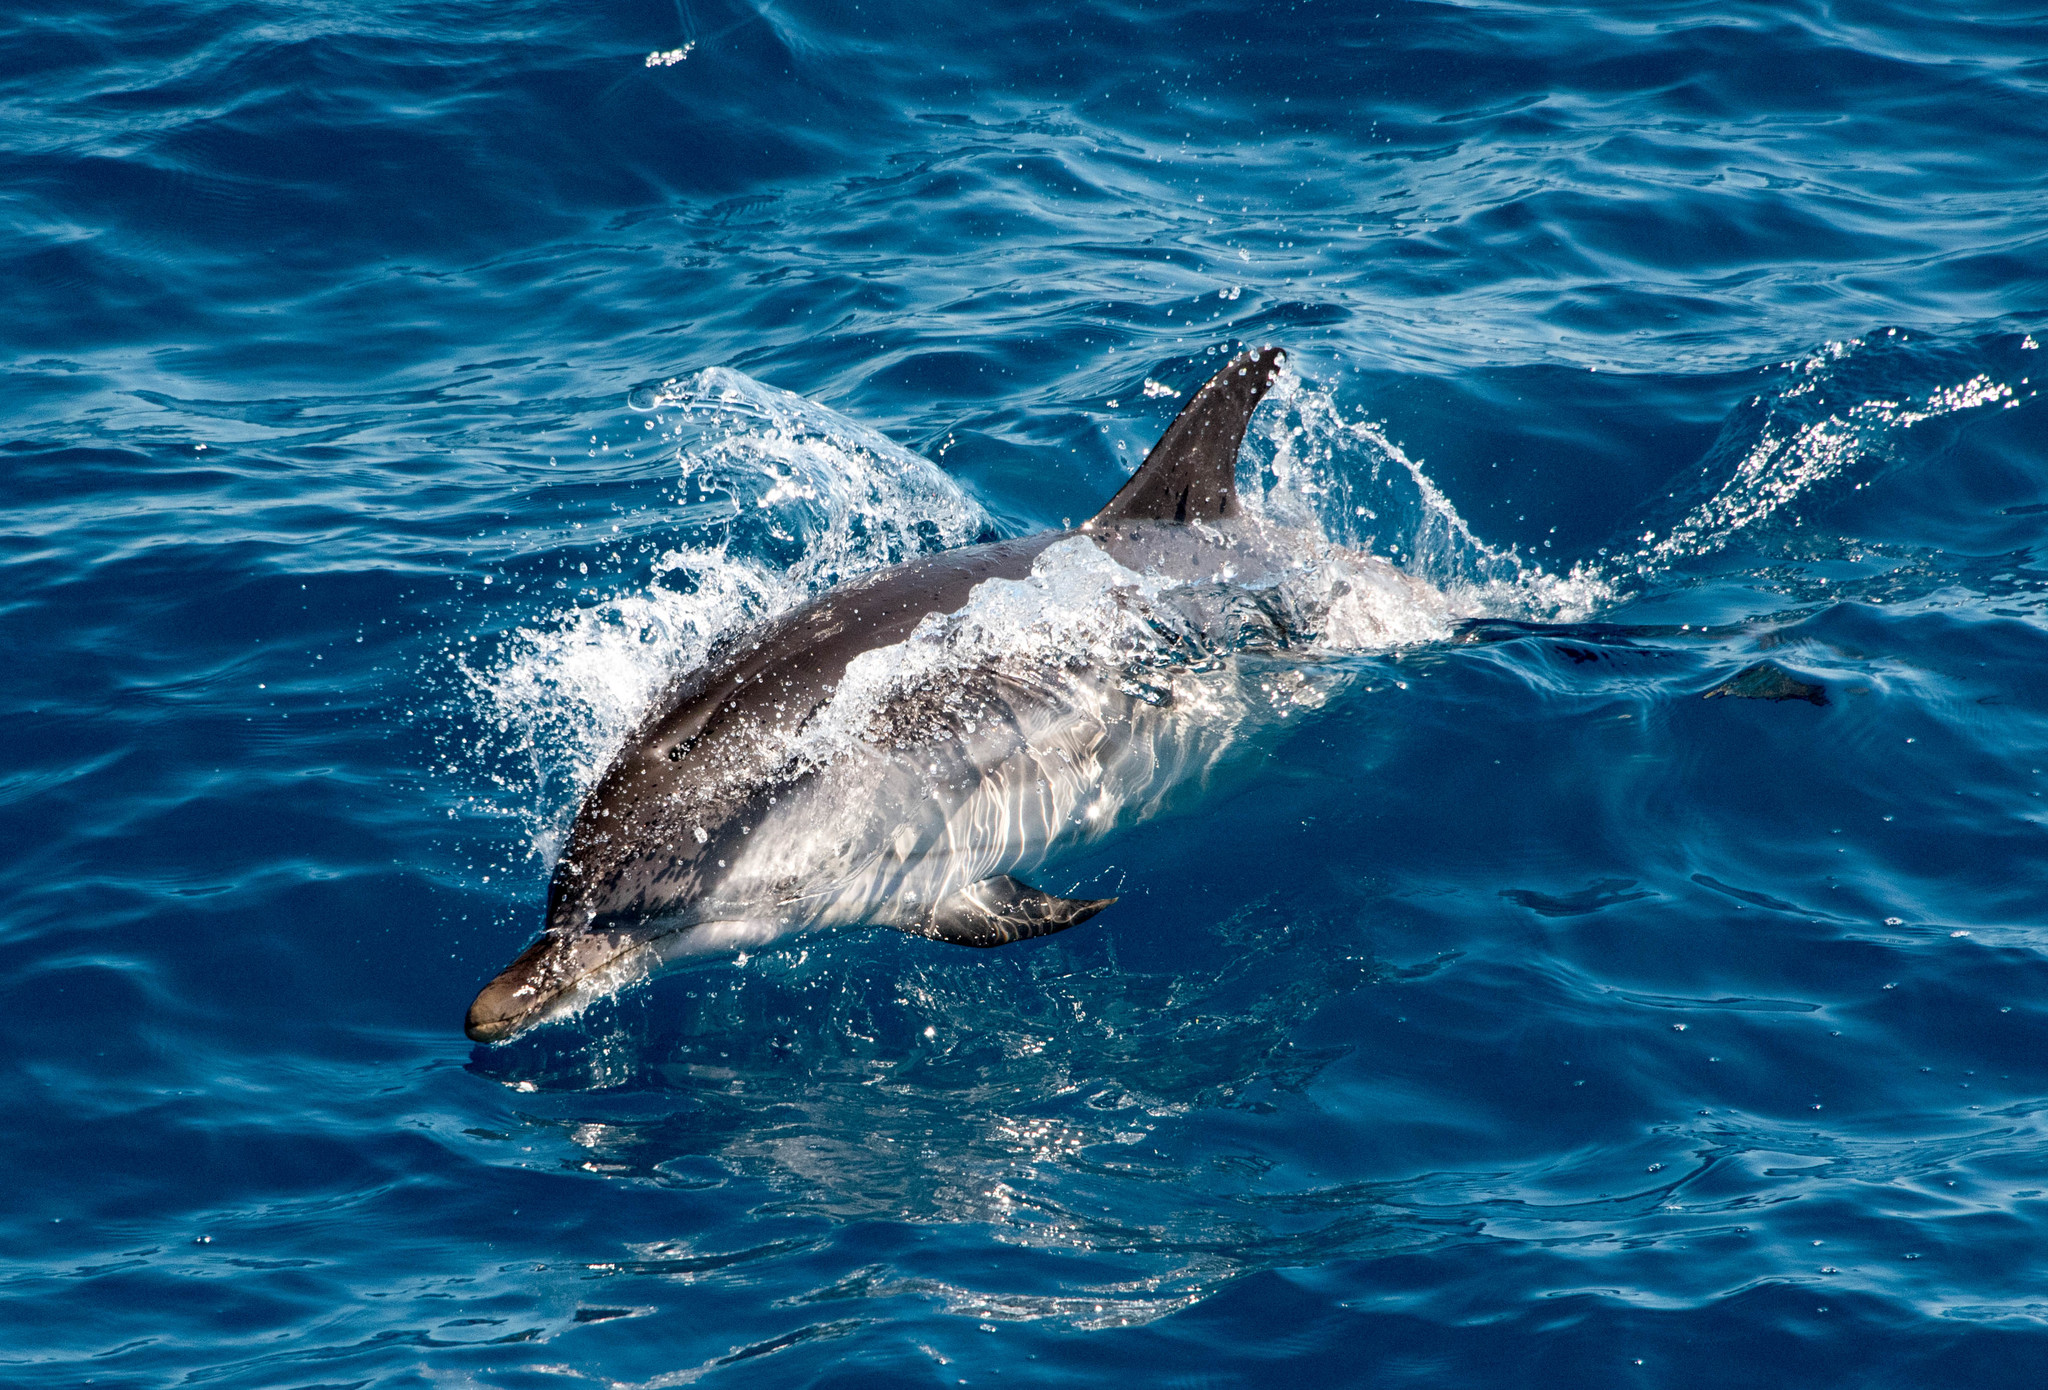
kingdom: Animalia
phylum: Chordata
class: Mammalia
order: Cetacea
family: Delphinidae
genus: Stenella
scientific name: Stenella coeruleoalba
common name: Striped dolphin
